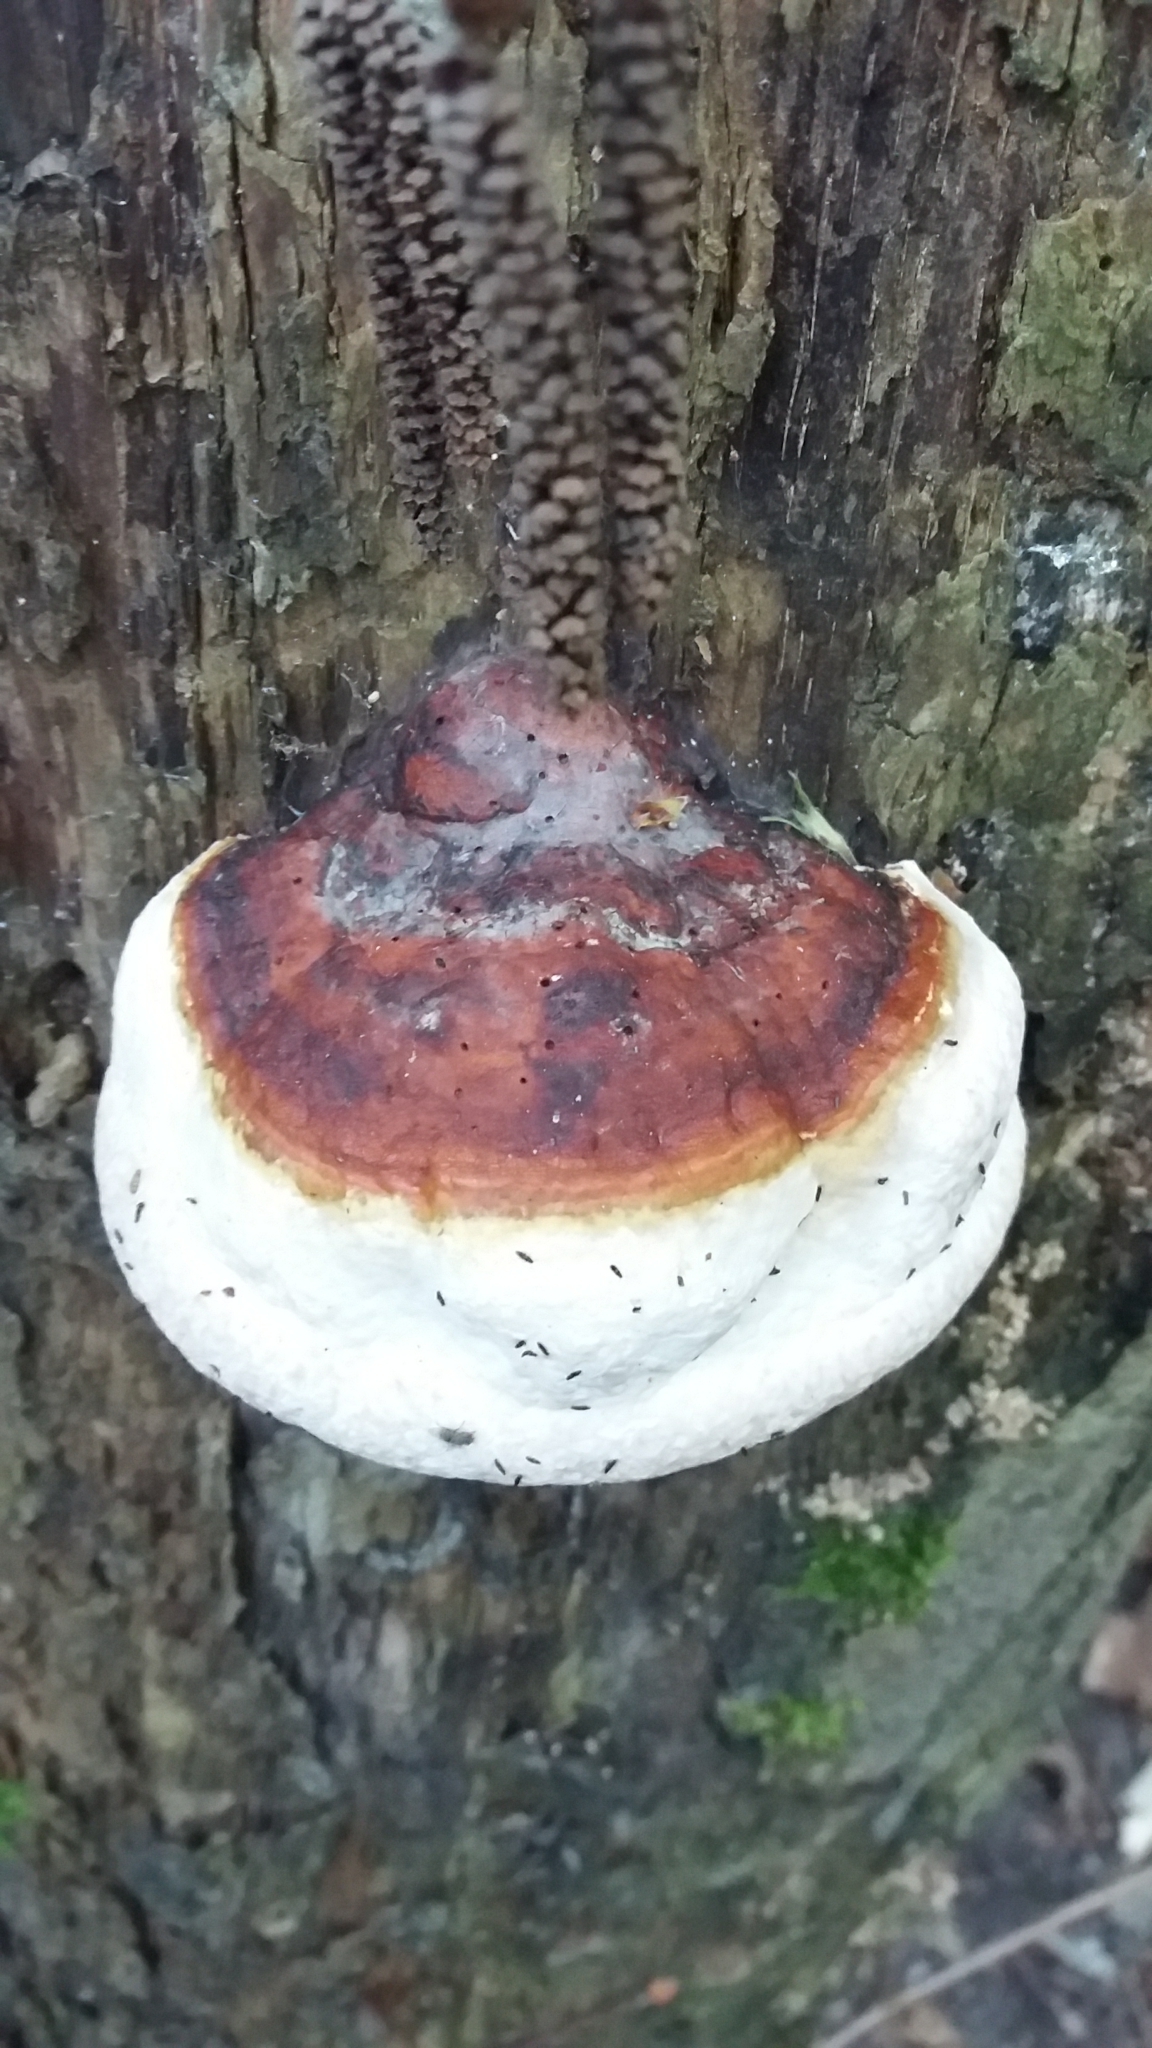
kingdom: Fungi
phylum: Basidiomycota
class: Agaricomycetes
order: Polyporales
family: Fomitopsidaceae
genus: Fomitopsis
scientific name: Fomitopsis pinicola
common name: Red-belted bracket
